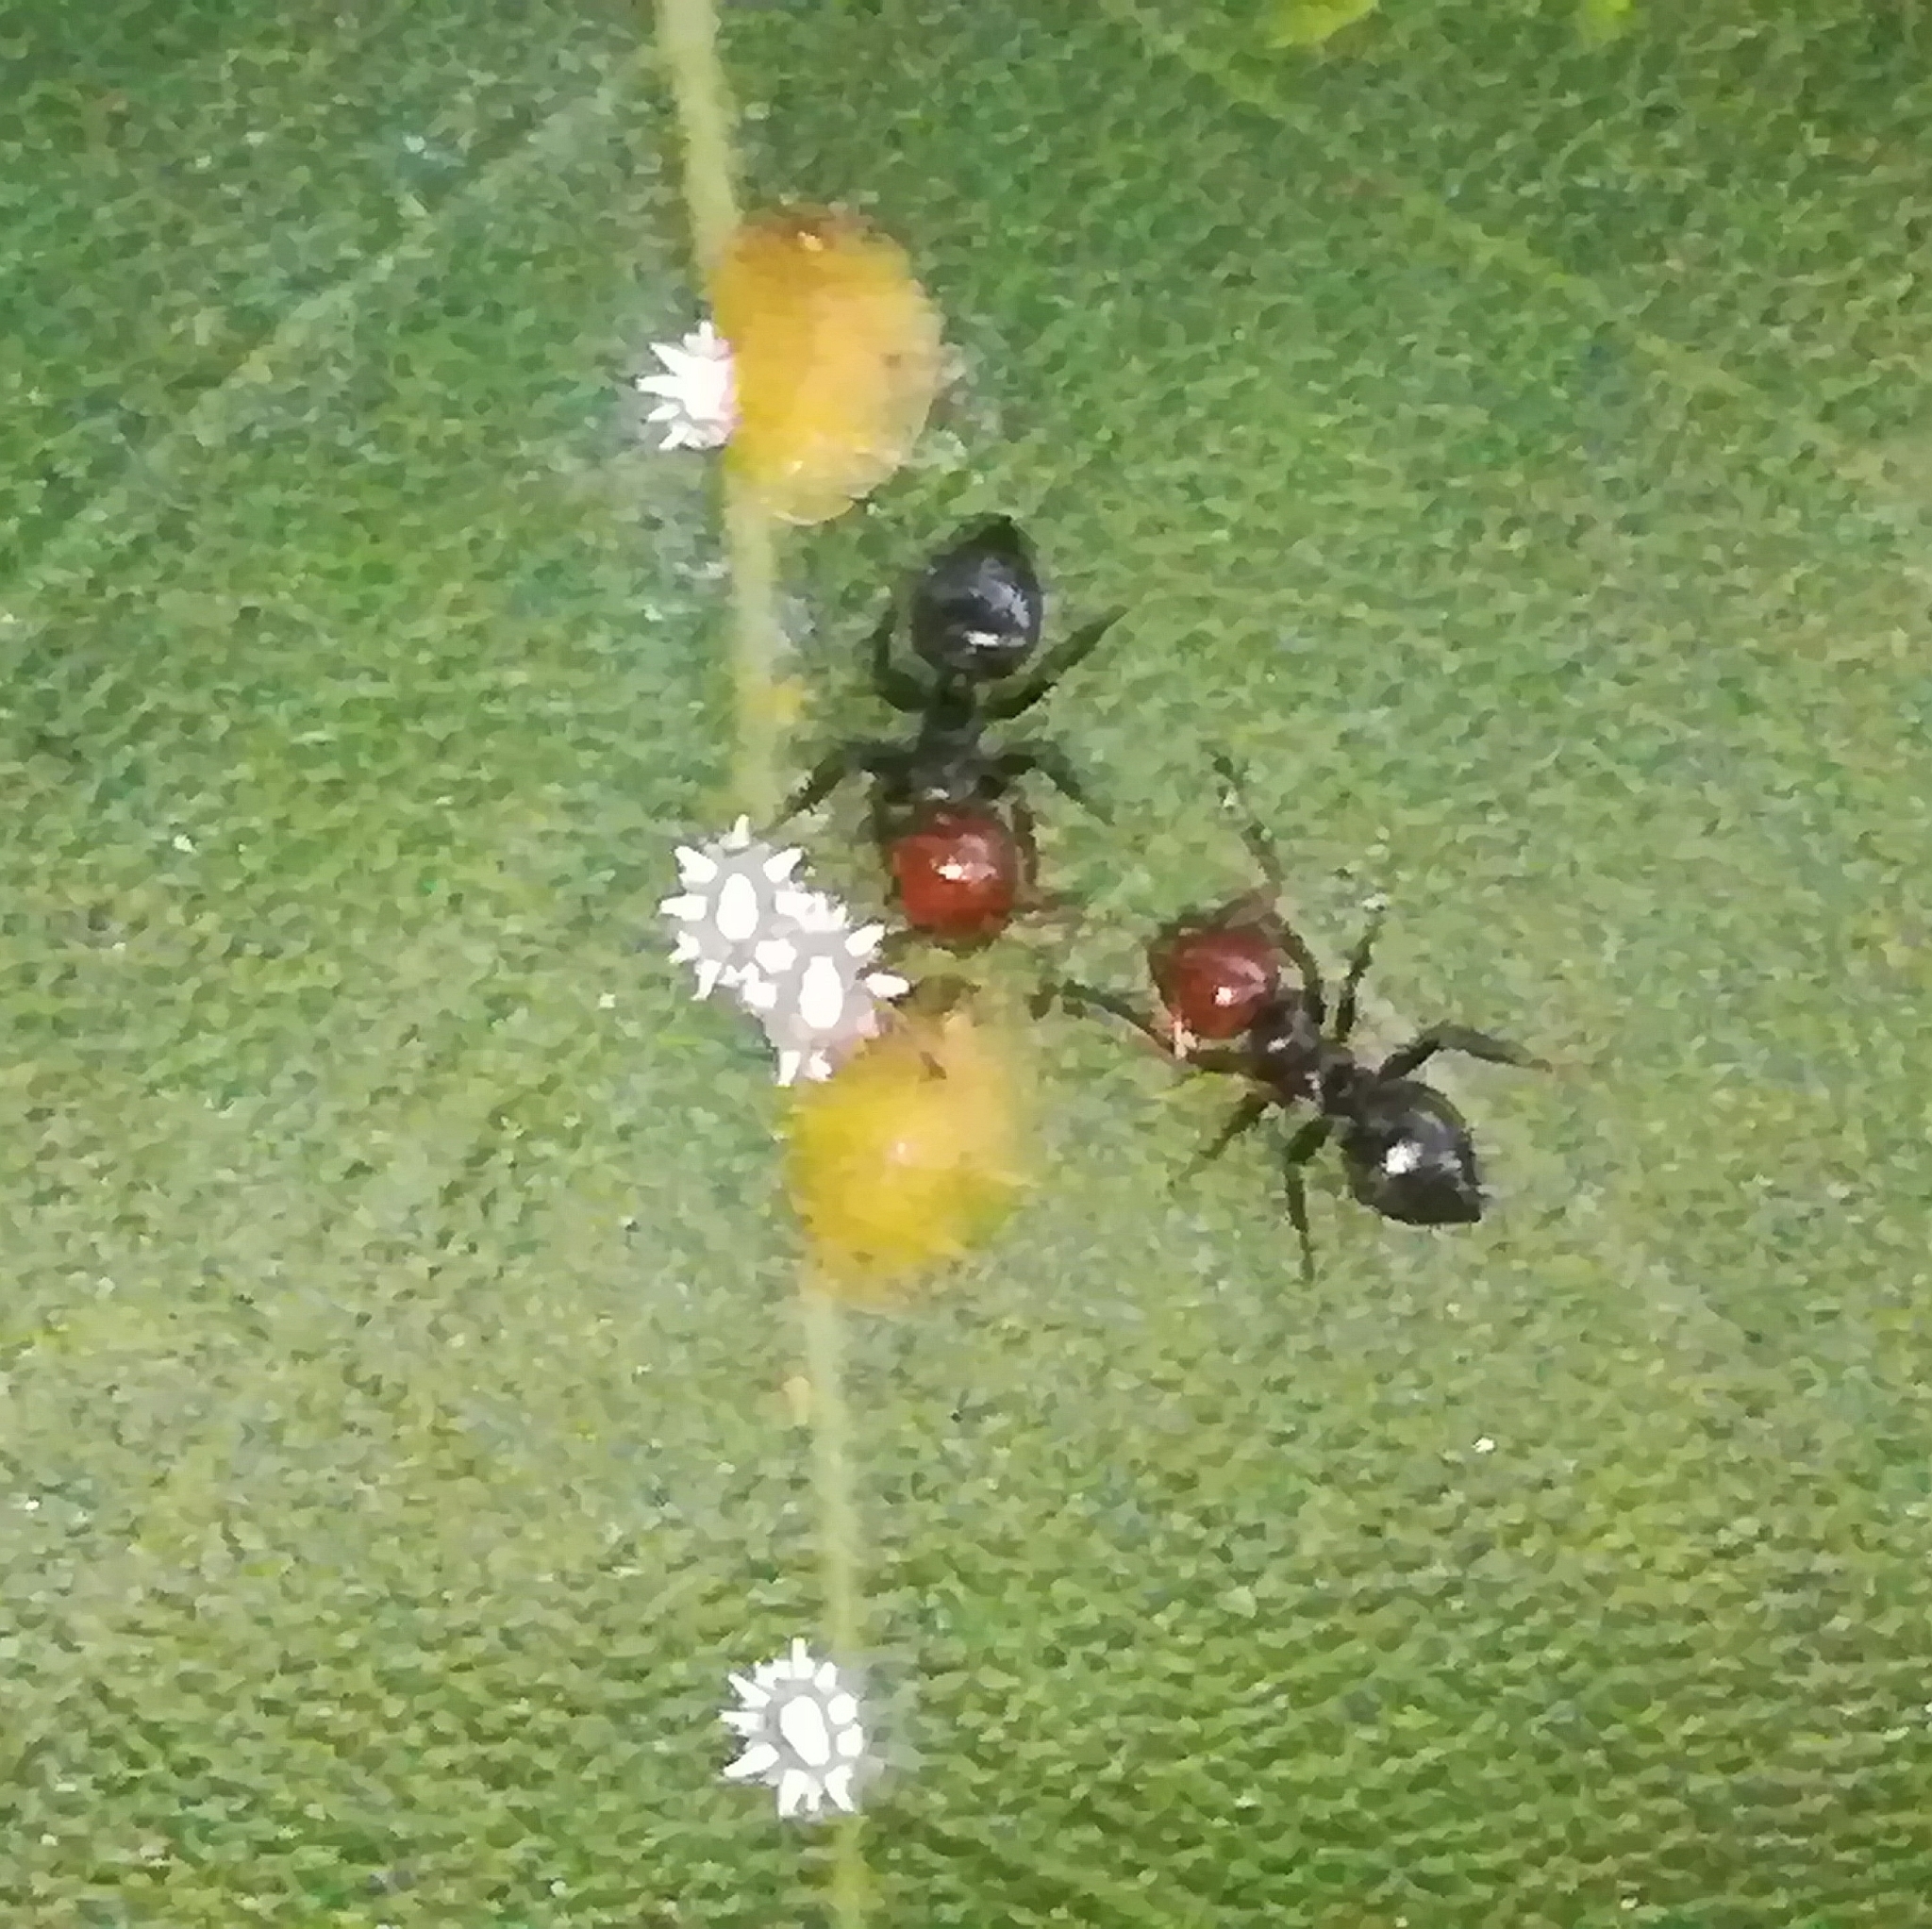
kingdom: Animalia
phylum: Arthropoda
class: Insecta
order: Hymenoptera
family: Formicidae
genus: Crematogaster
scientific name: Crematogaster scutellaris
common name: Fourmi du liège
